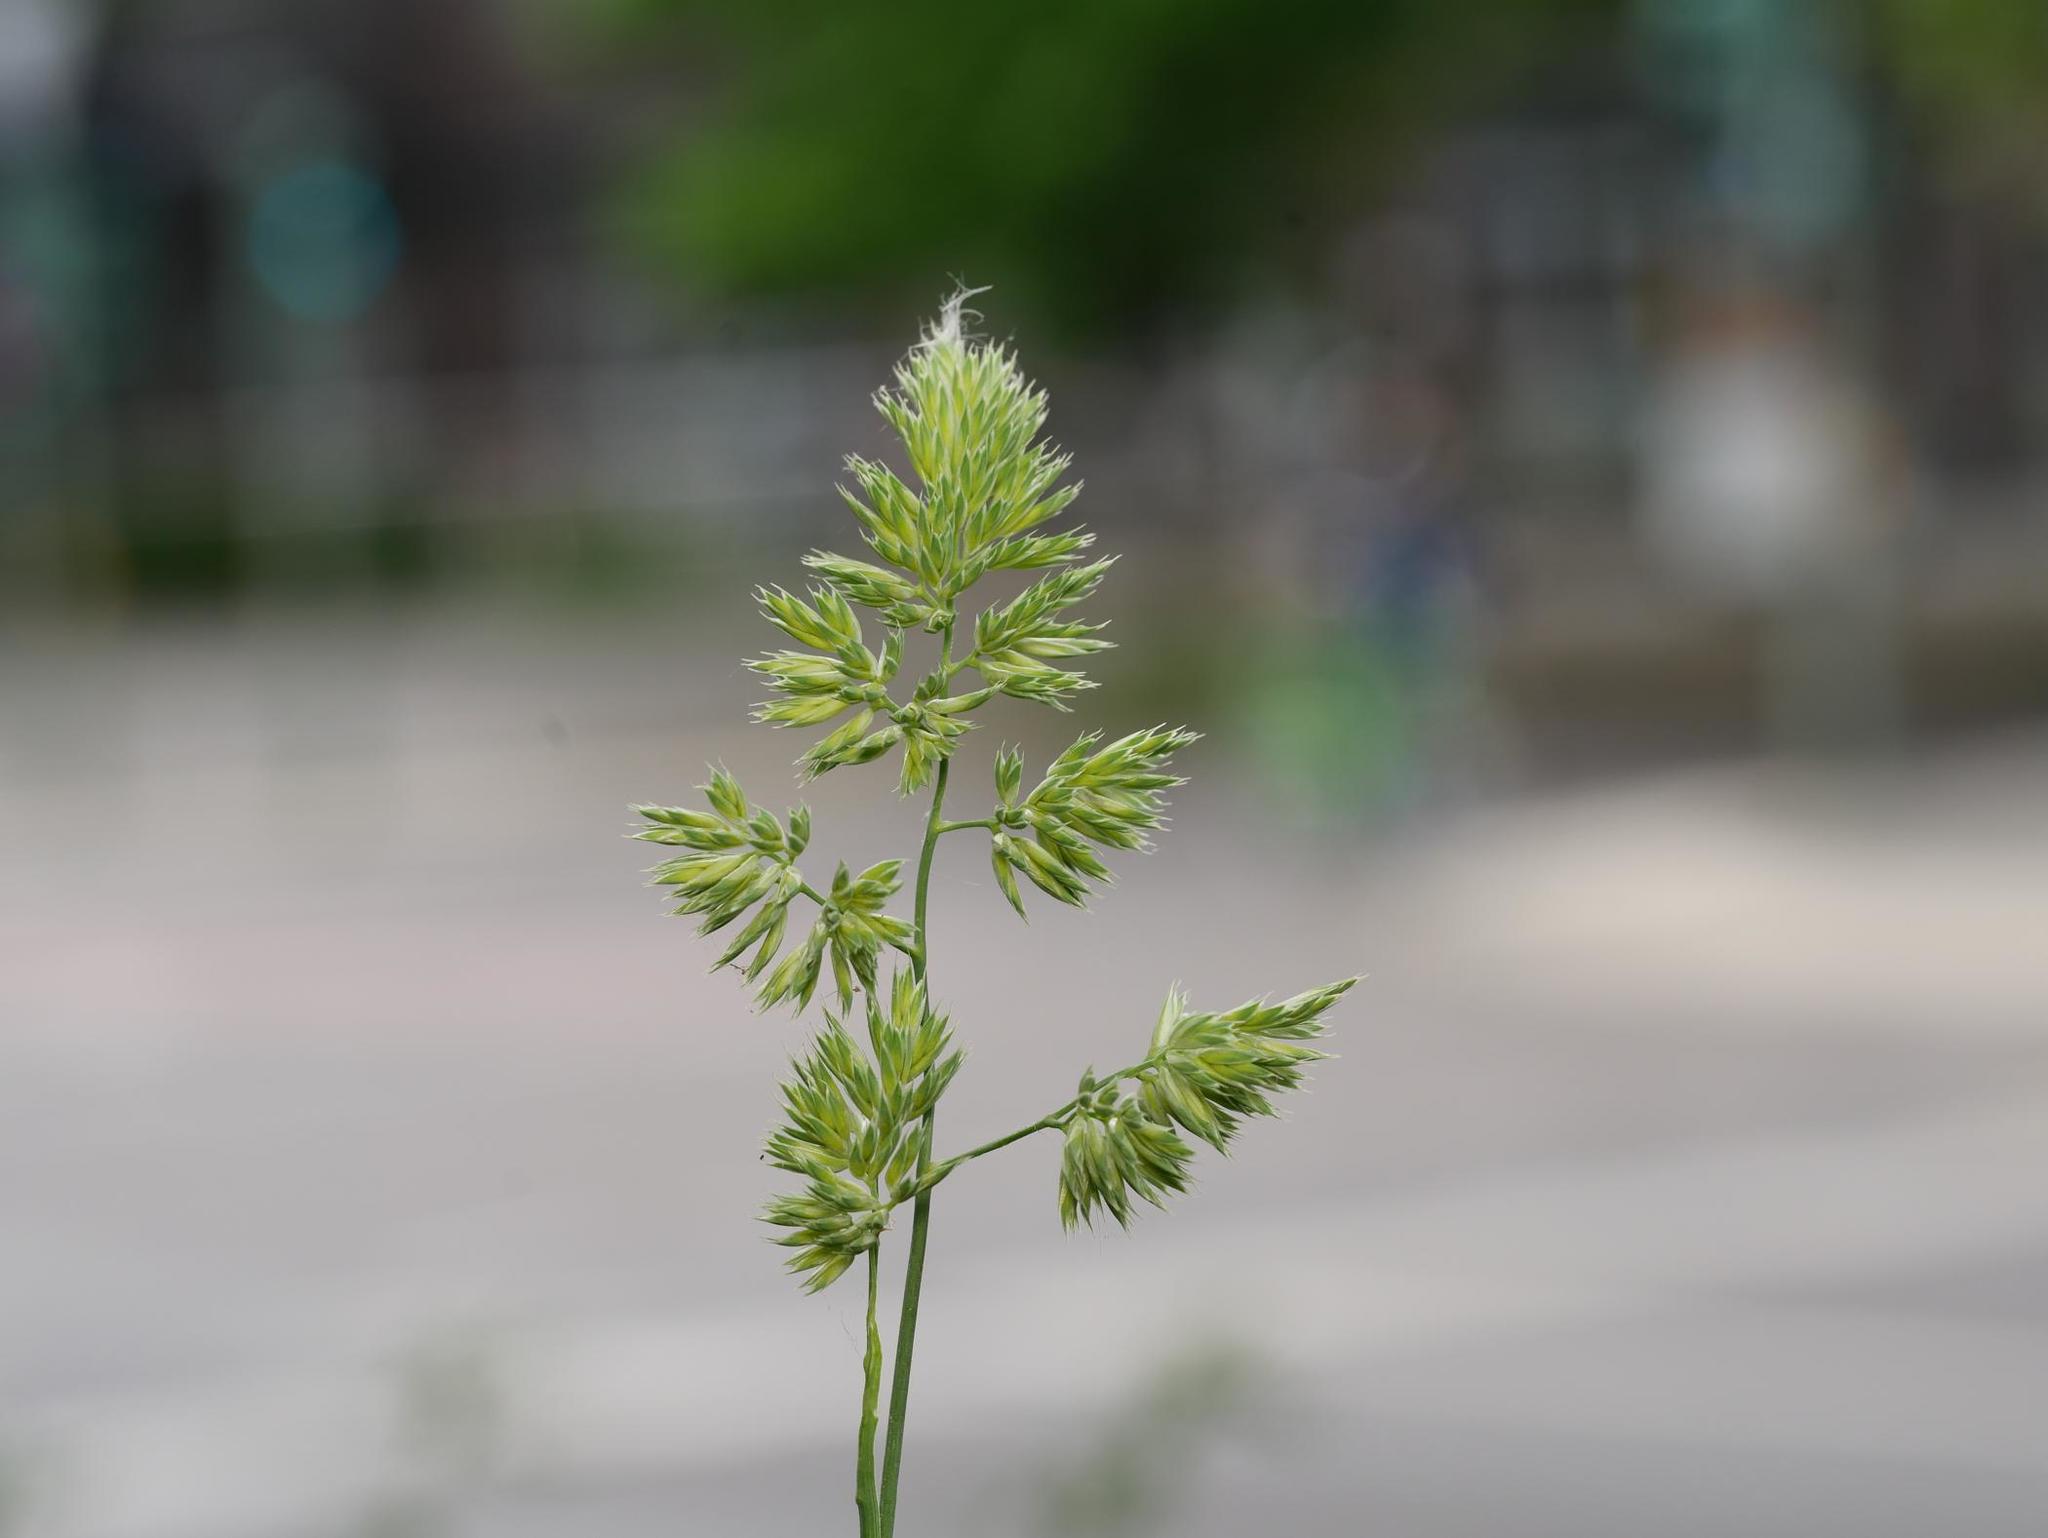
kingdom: Plantae
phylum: Tracheophyta
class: Liliopsida
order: Poales
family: Poaceae
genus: Dactylis
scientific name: Dactylis glomerata
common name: Orchardgrass
